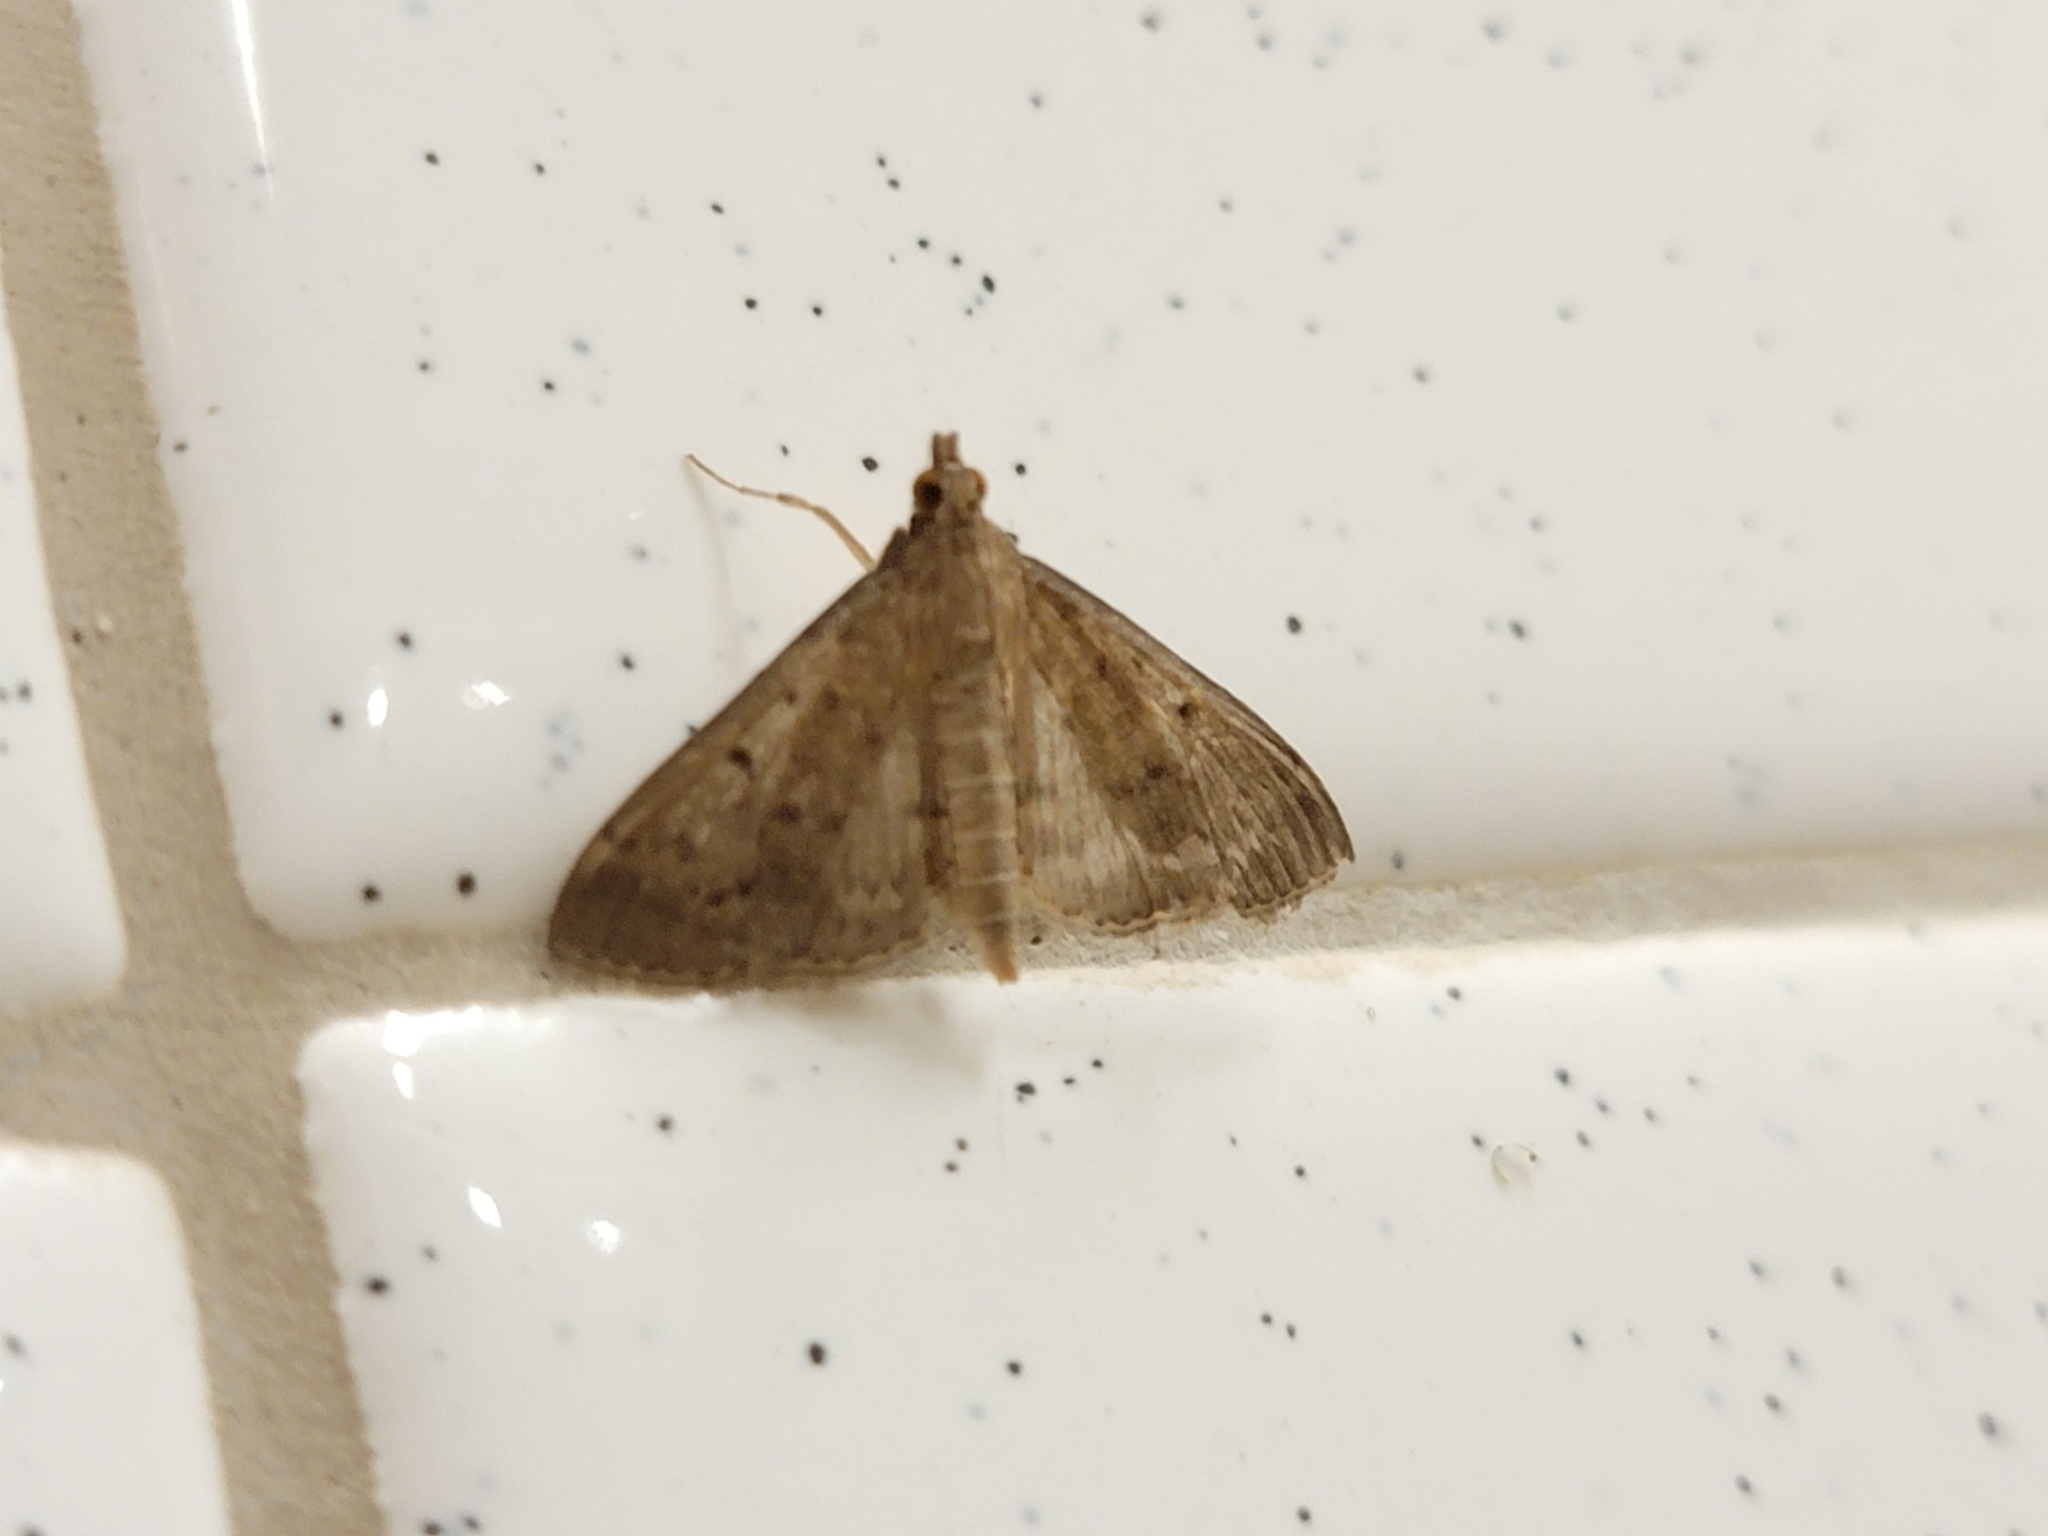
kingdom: Animalia
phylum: Arthropoda
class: Insecta
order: Lepidoptera
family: Crambidae
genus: Herpetogramma
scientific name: Herpetogramma licarsisalis
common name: Grass webworm
